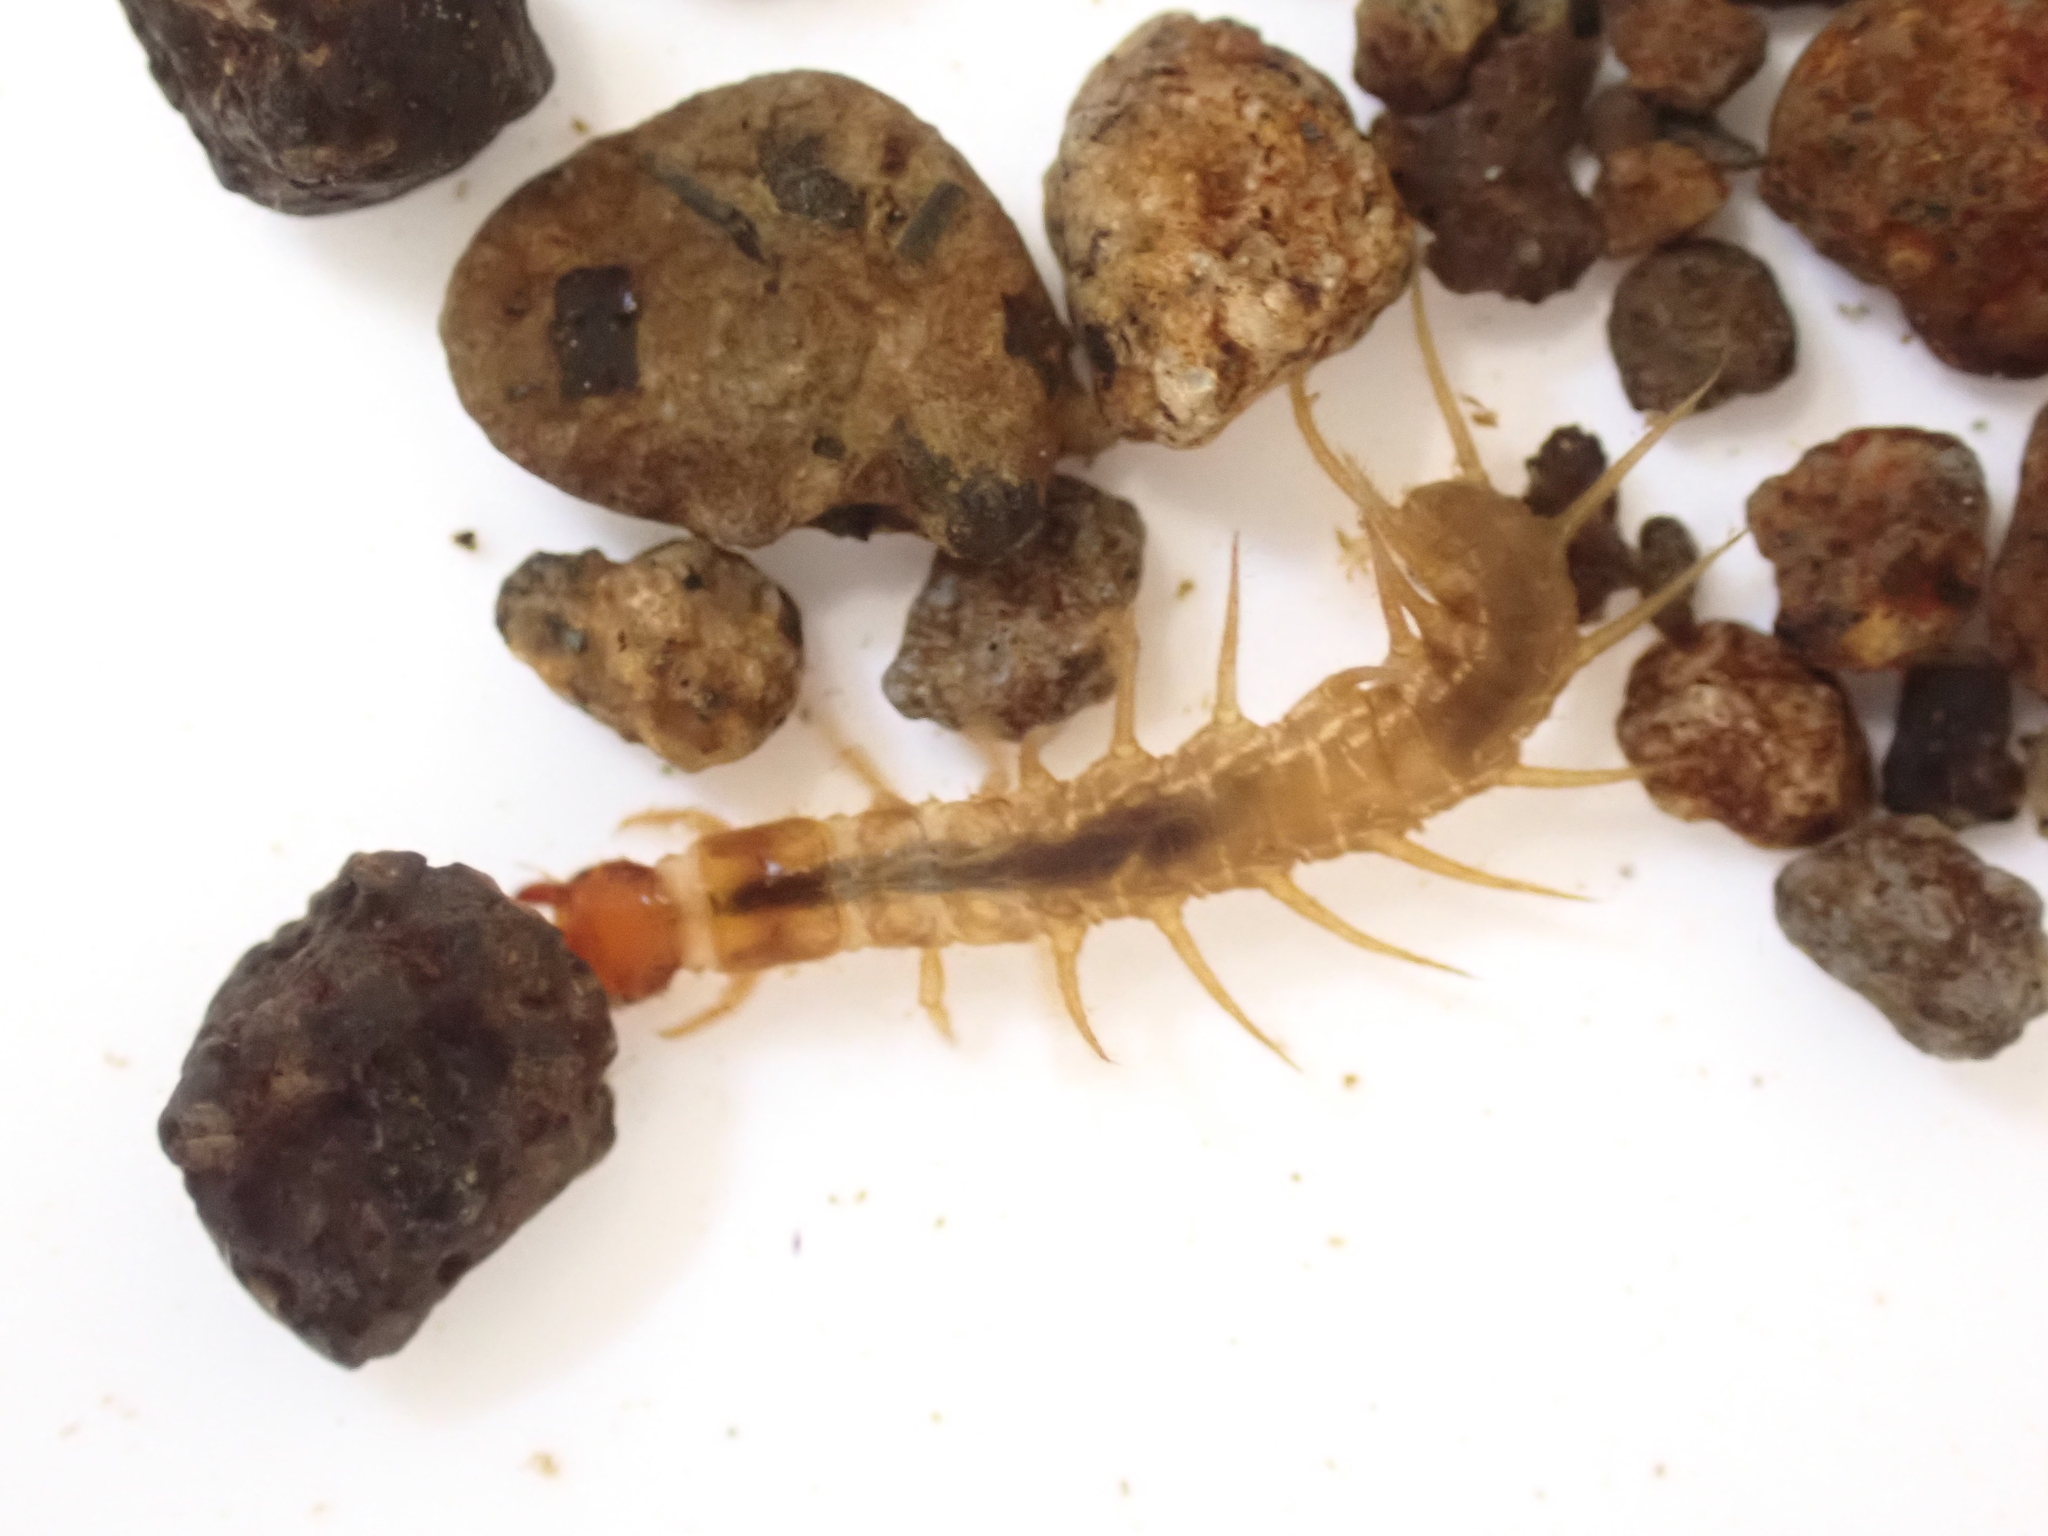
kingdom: Animalia
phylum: Arthropoda
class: Insecta
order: Megaloptera
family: Corydalidae
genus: Archichauliodes
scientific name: Archichauliodes diversus
